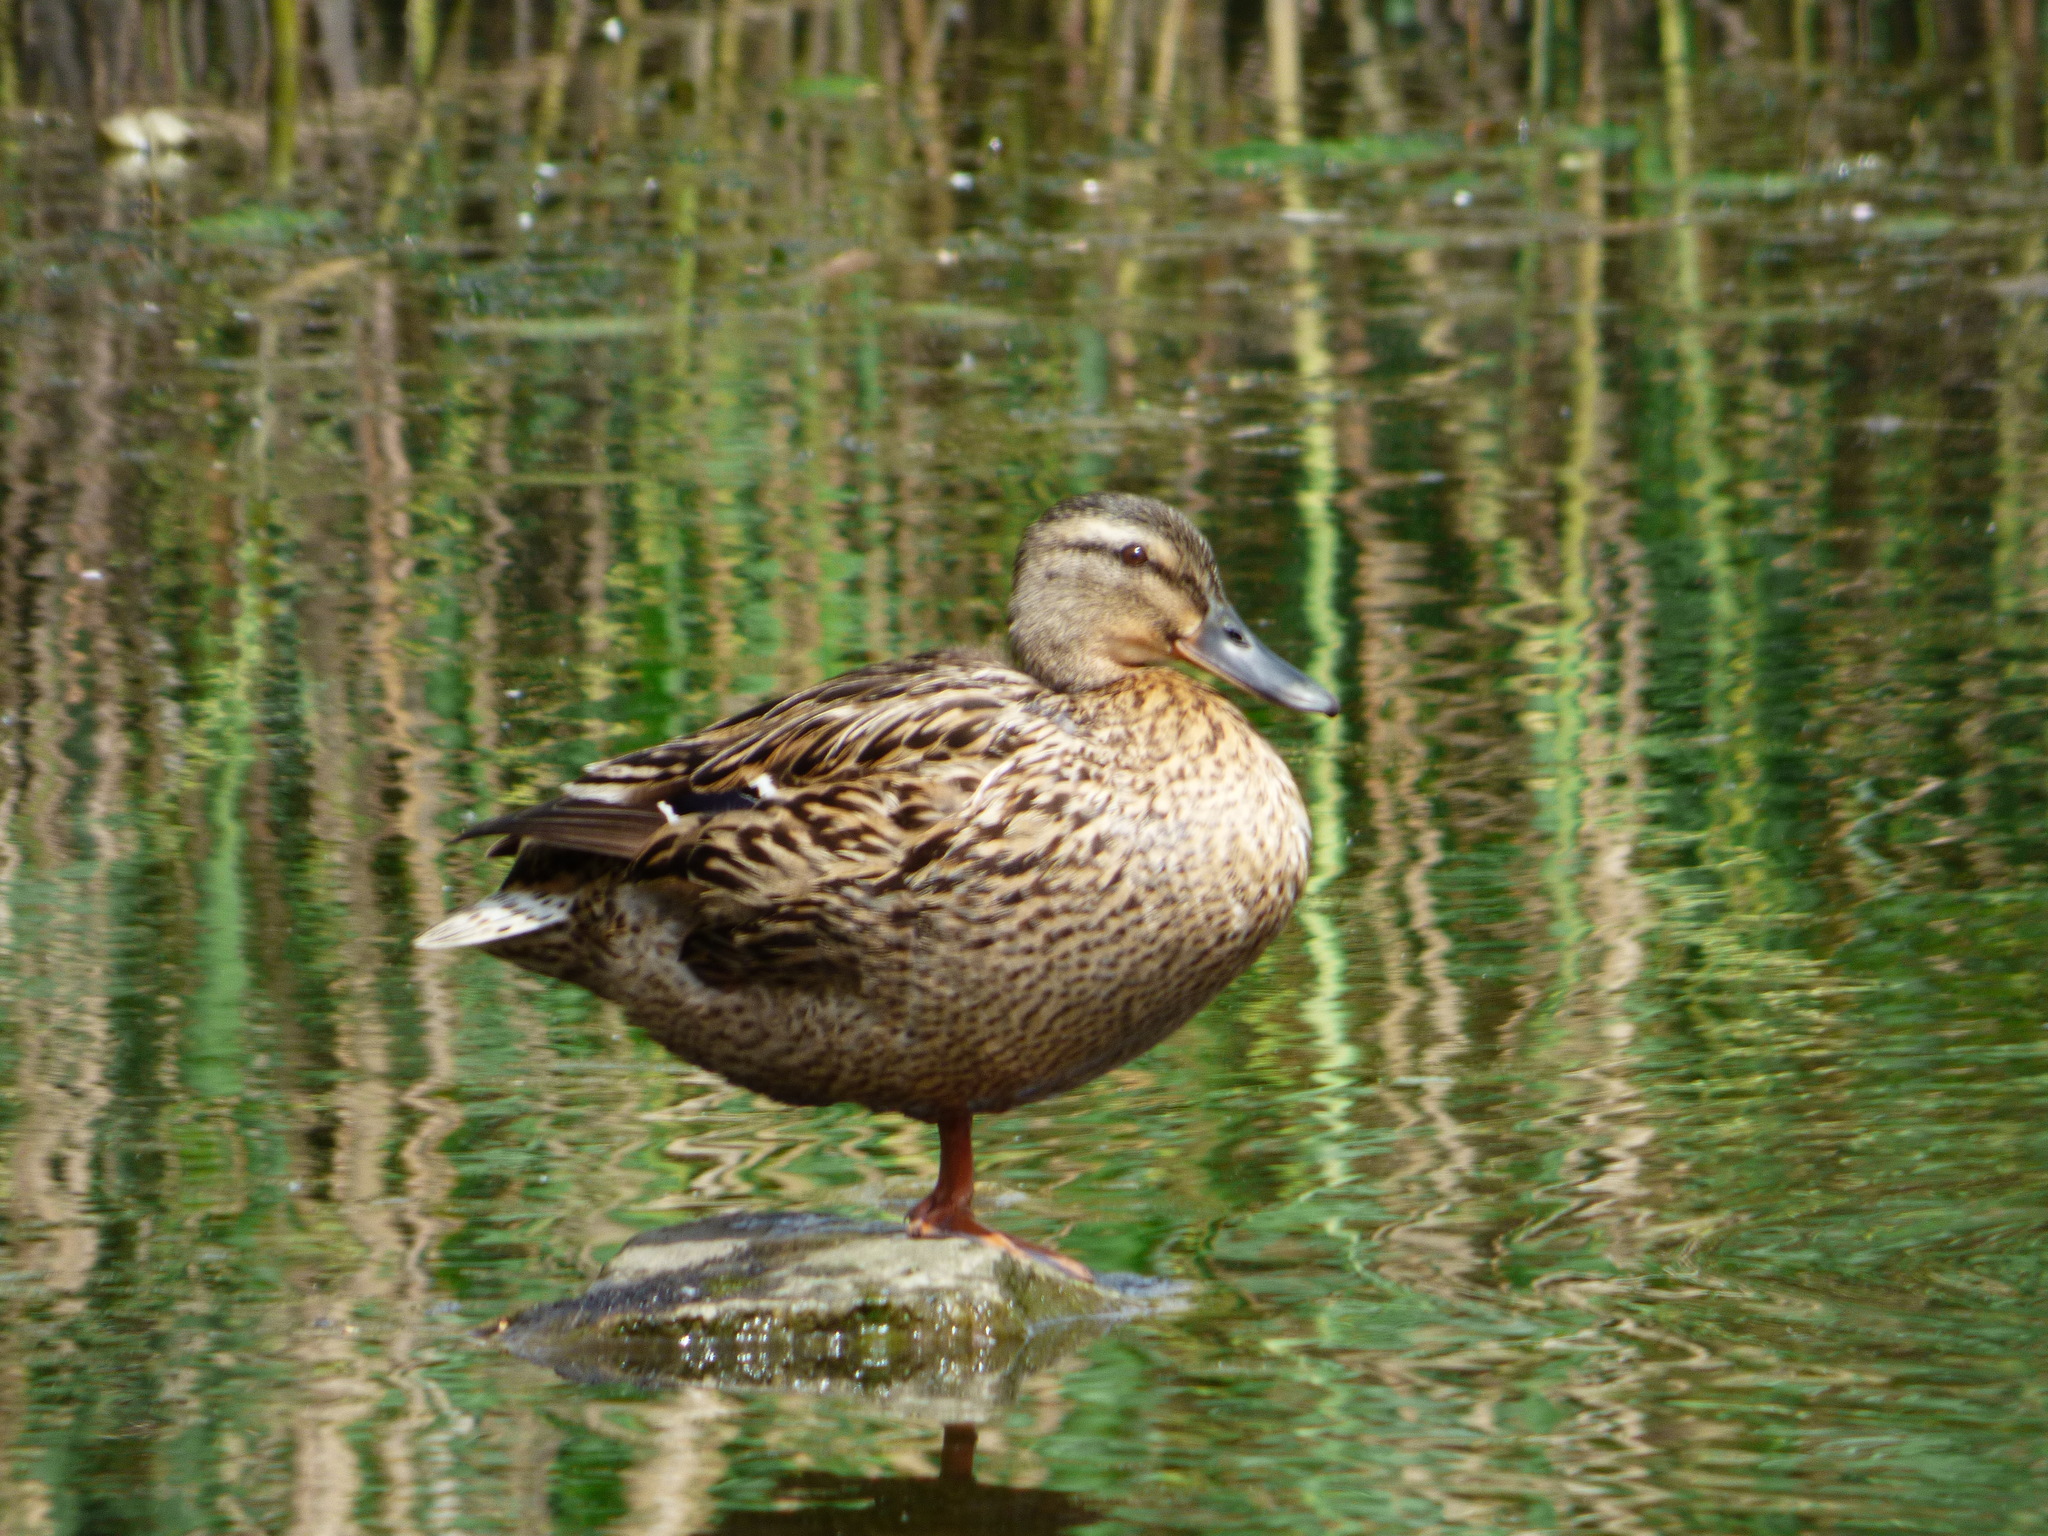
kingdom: Animalia
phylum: Chordata
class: Aves
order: Anseriformes
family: Anatidae
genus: Anas
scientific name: Anas platyrhynchos
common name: Mallard
